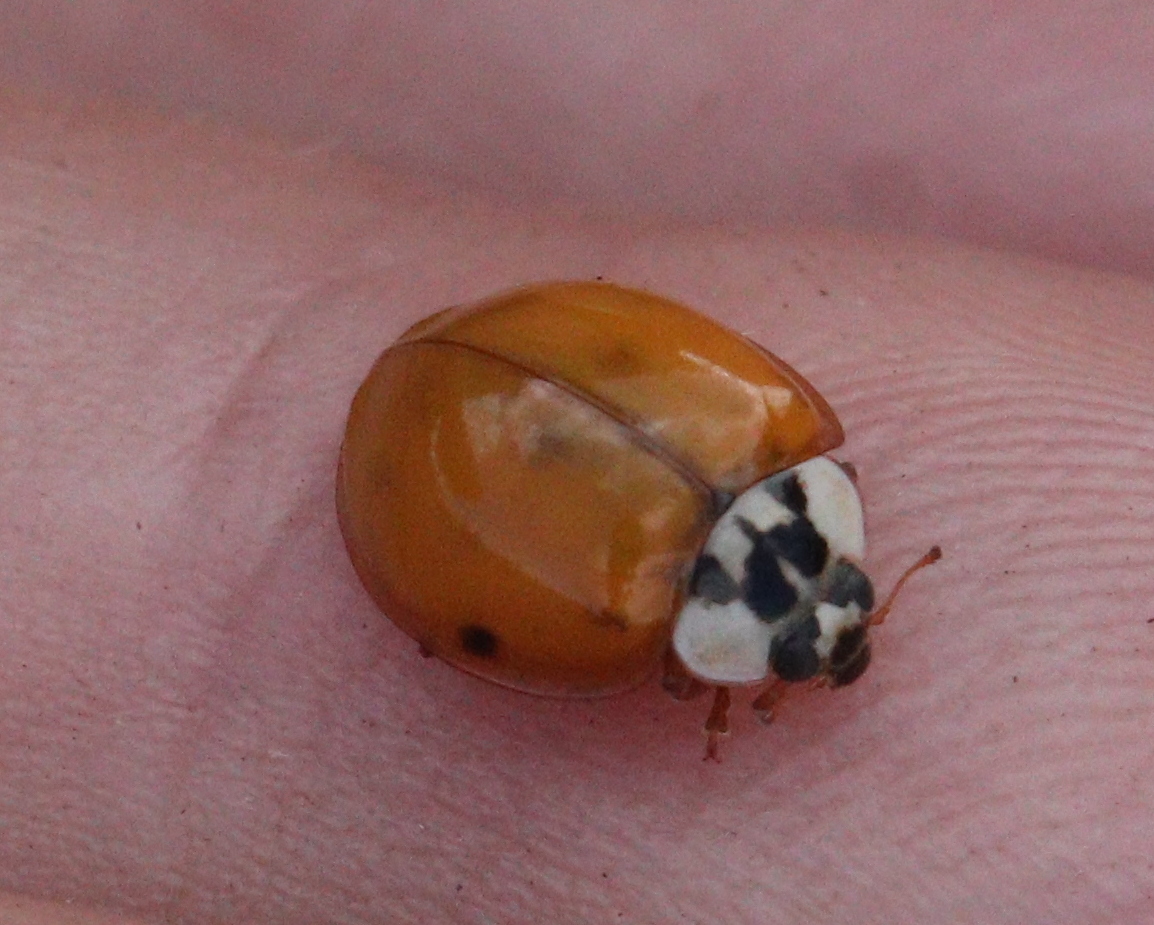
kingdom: Animalia
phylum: Arthropoda
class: Insecta
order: Coleoptera
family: Coccinellidae
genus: Harmonia
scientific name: Harmonia axyridis
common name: Harlequin ladybird
